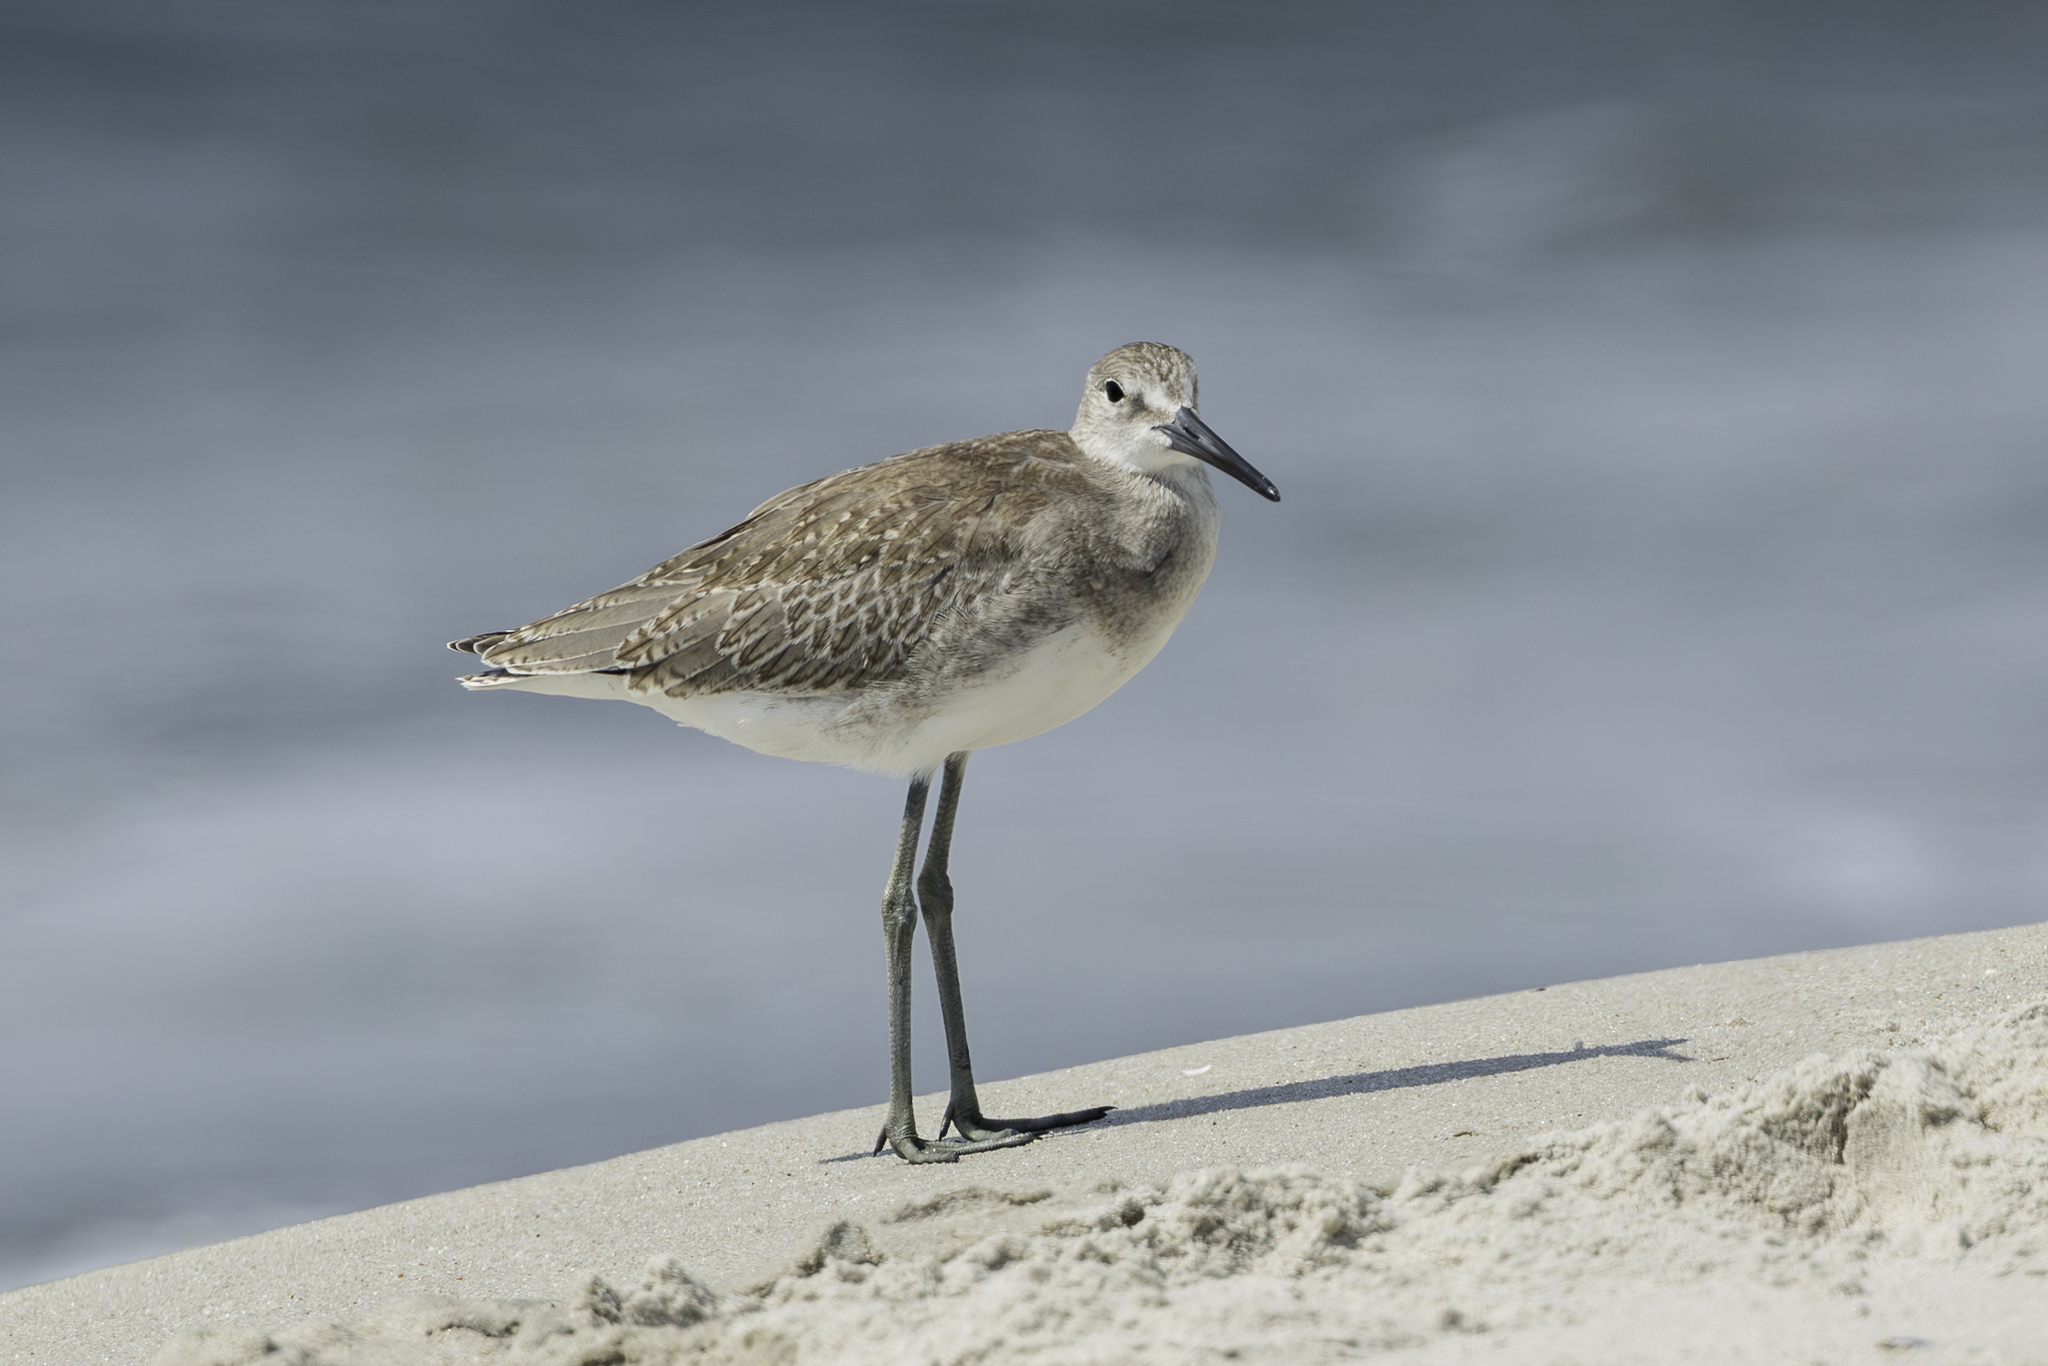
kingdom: Animalia
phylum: Chordata
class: Aves
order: Charadriiformes
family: Scolopacidae
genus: Tringa
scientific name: Tringa semipalmata
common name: Willet
